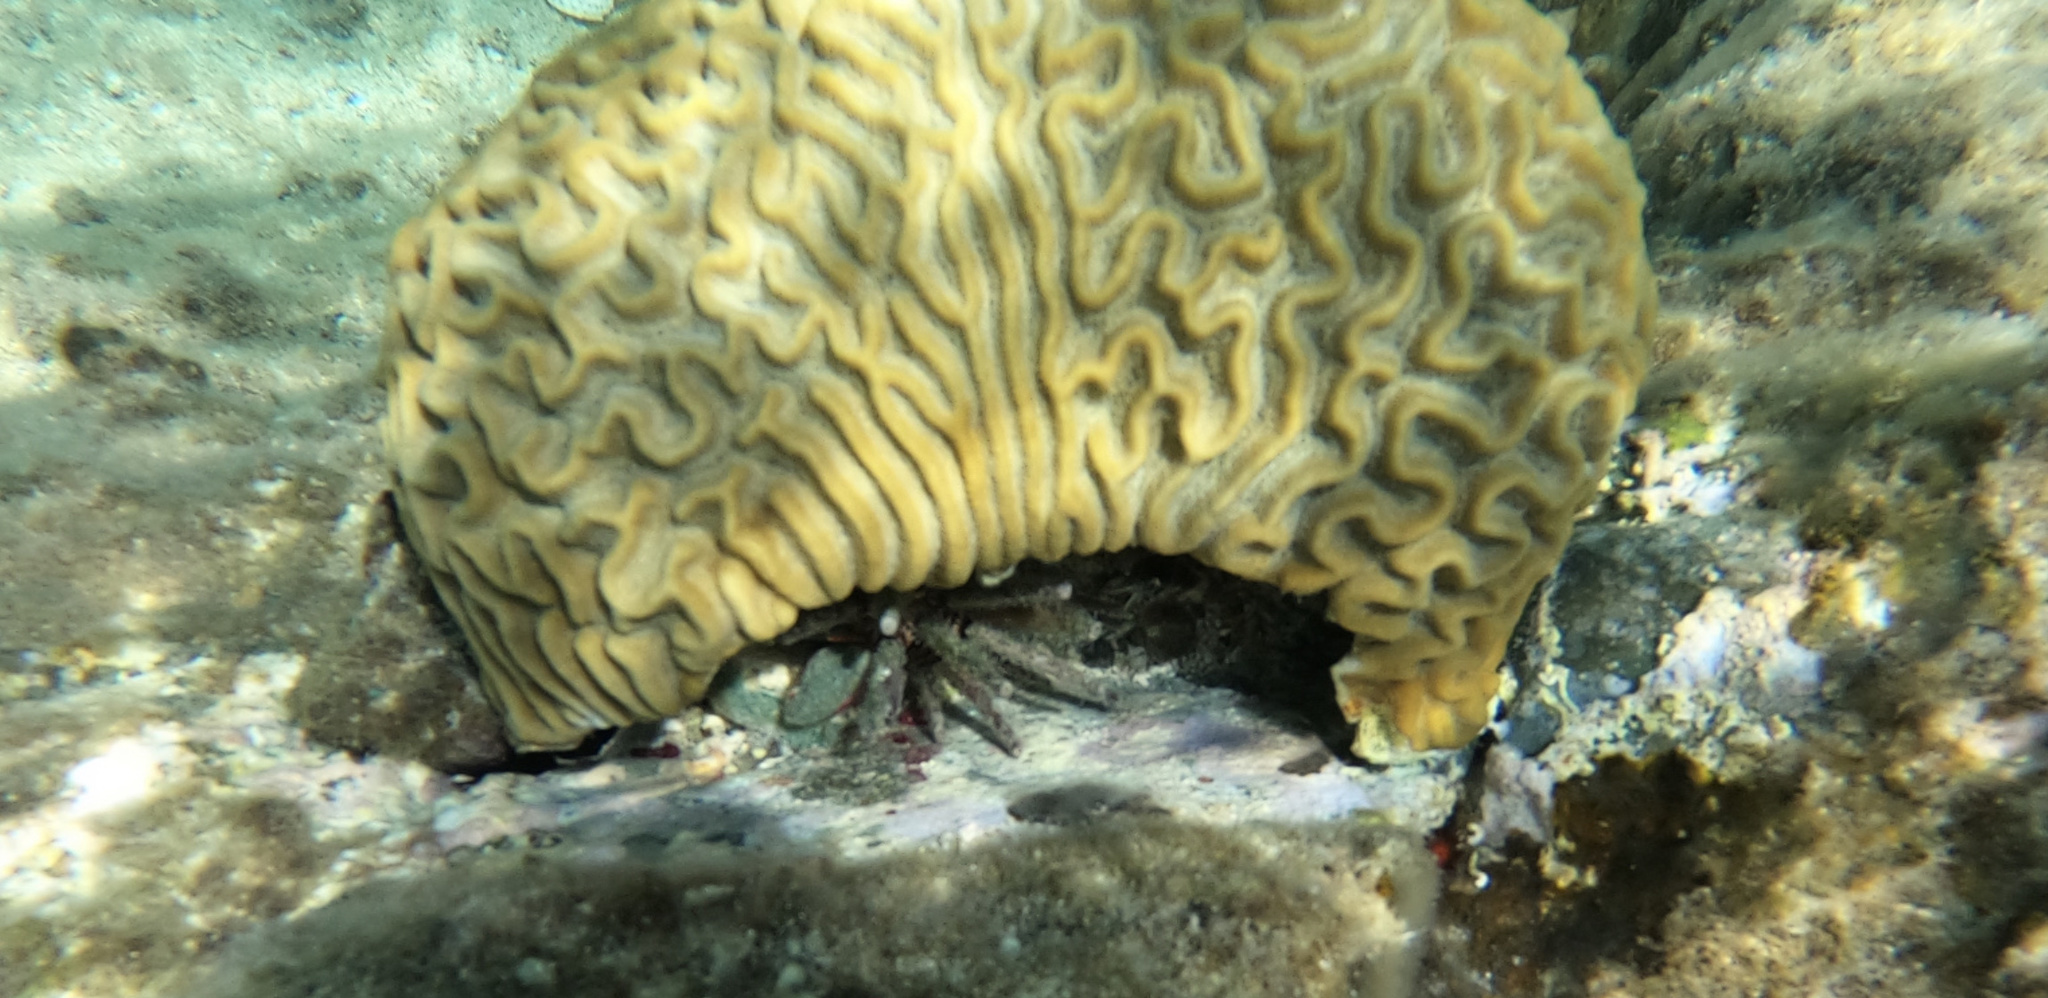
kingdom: Animalia
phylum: Cnidaria
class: Anthozoa
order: Scleractinia
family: Faviidae
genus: Colpophyllia
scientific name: Colpophyllia natans
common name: Boulder brain coral
